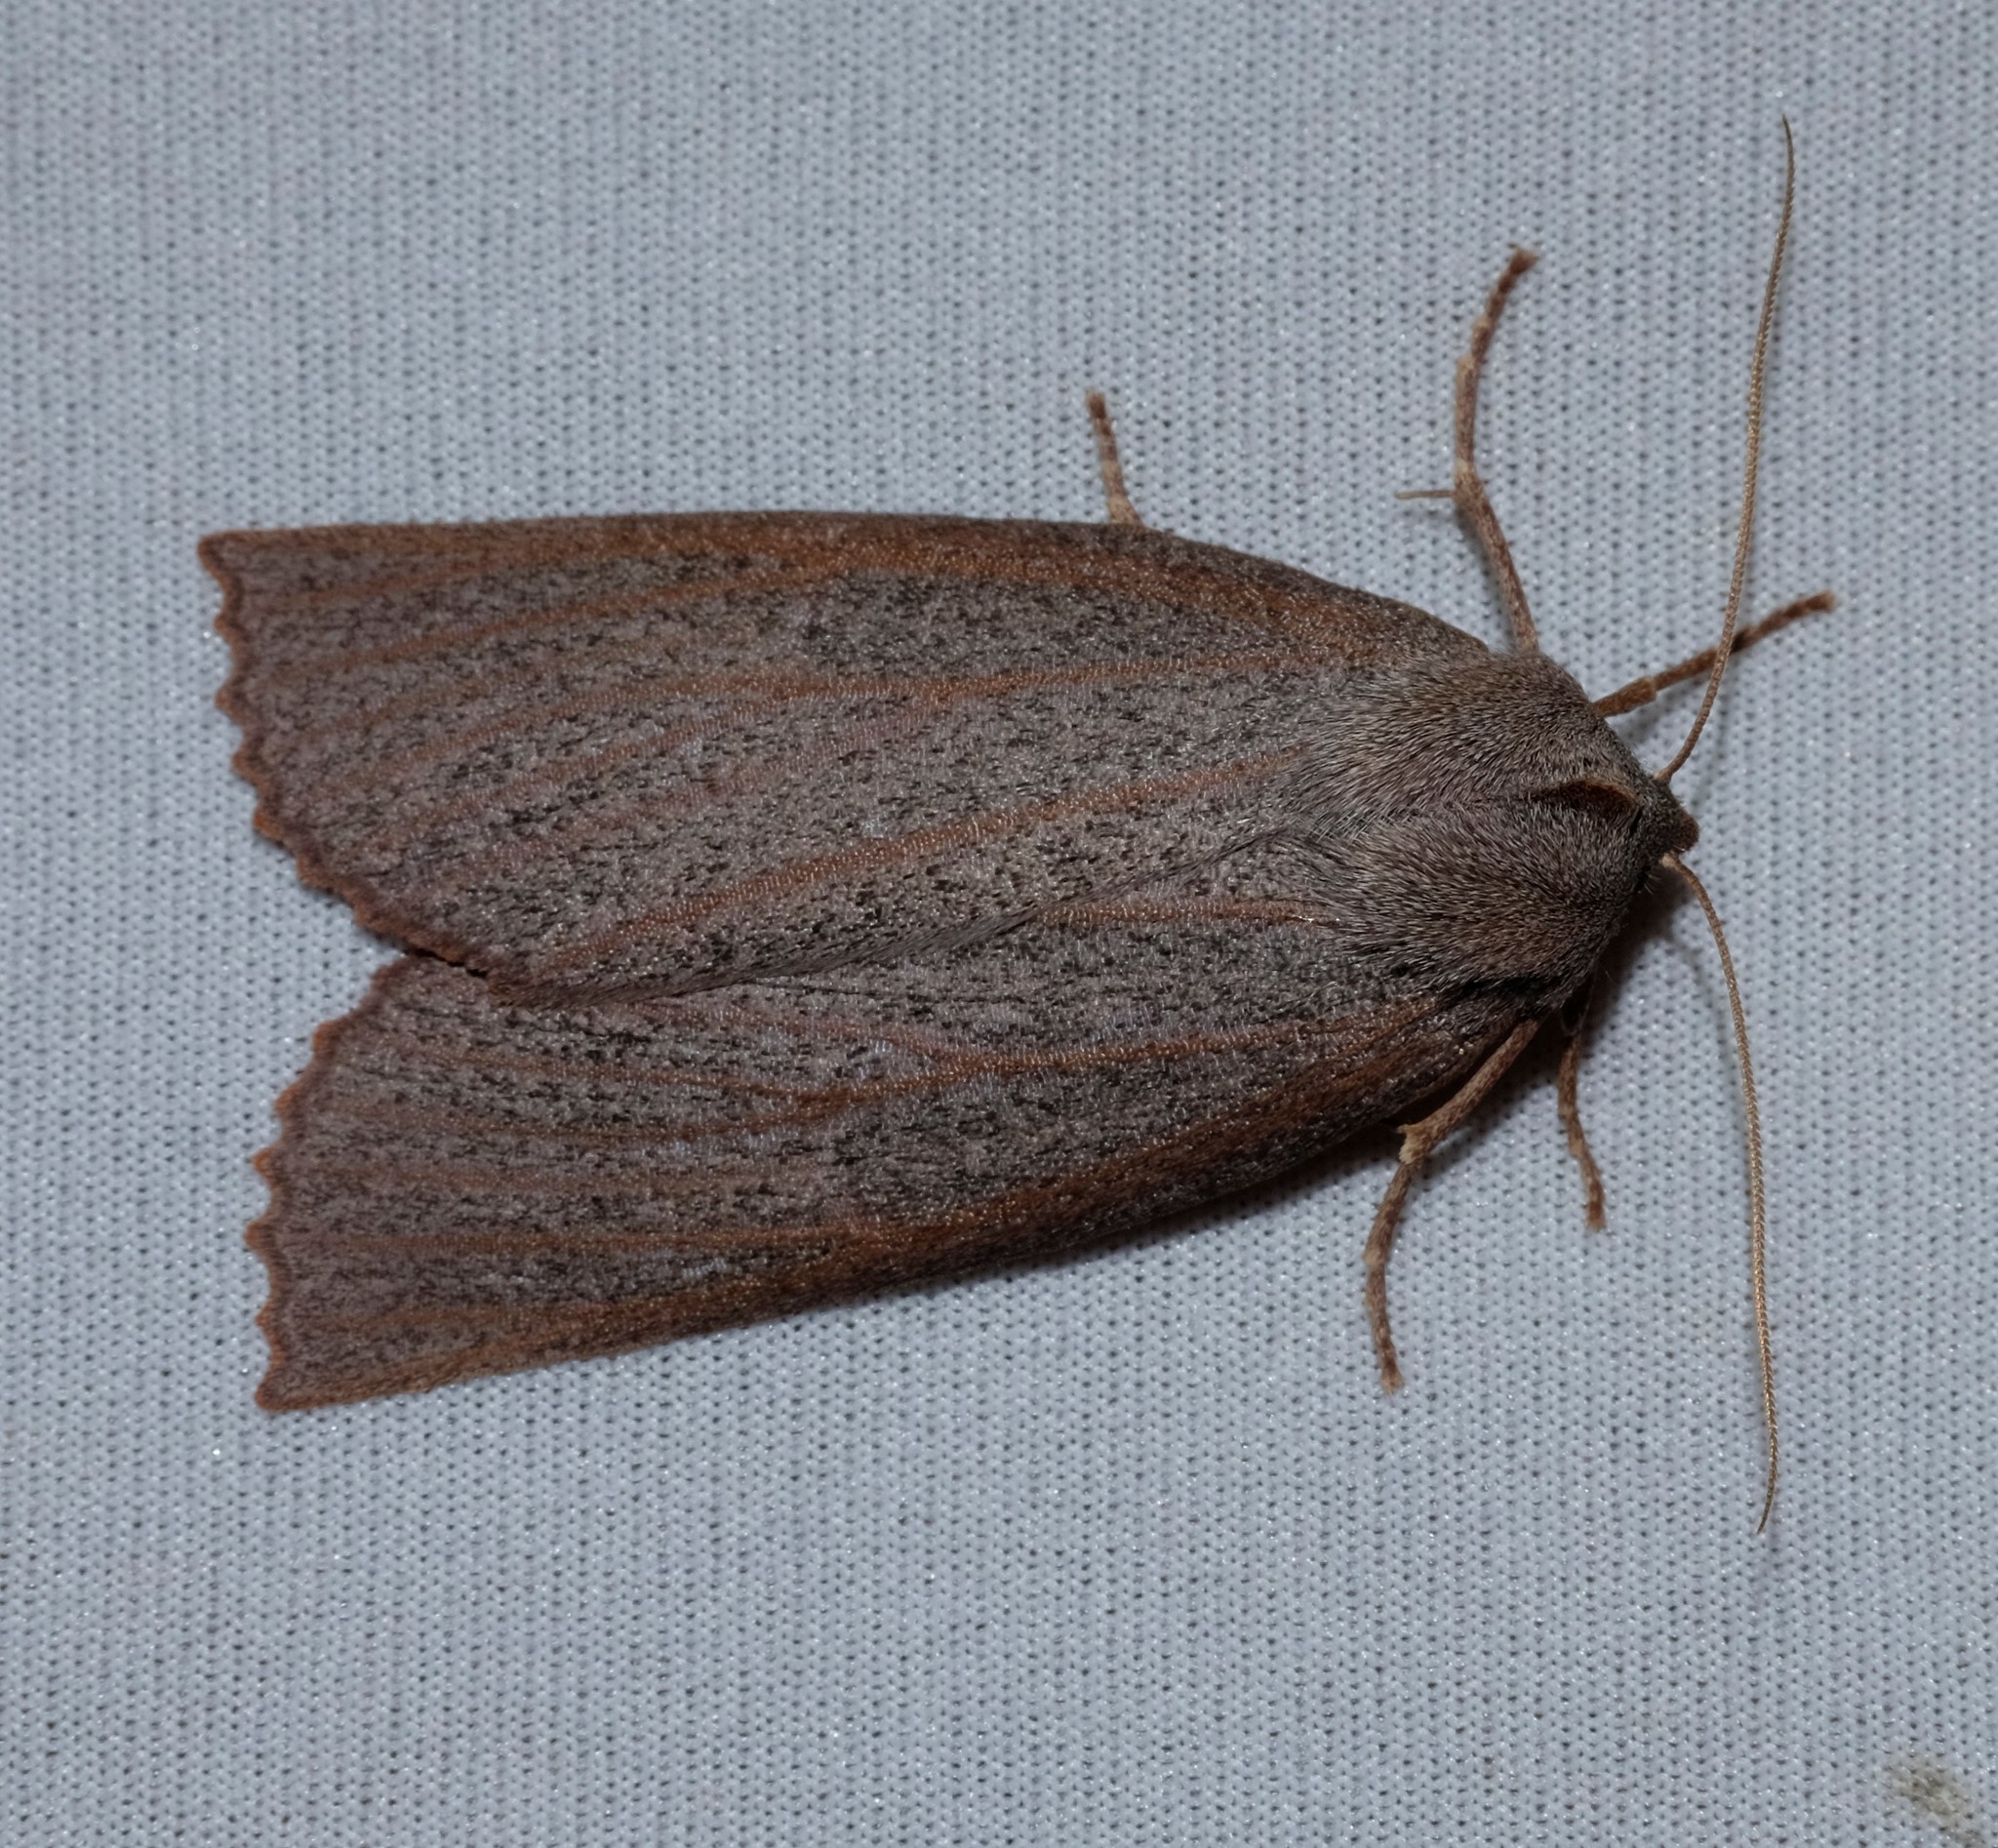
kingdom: Animalia
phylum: Arthropoda
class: Insecta
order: Lepidoptera
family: Geometridae
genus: Paralaea
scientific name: Paralaea porphyrinaria
